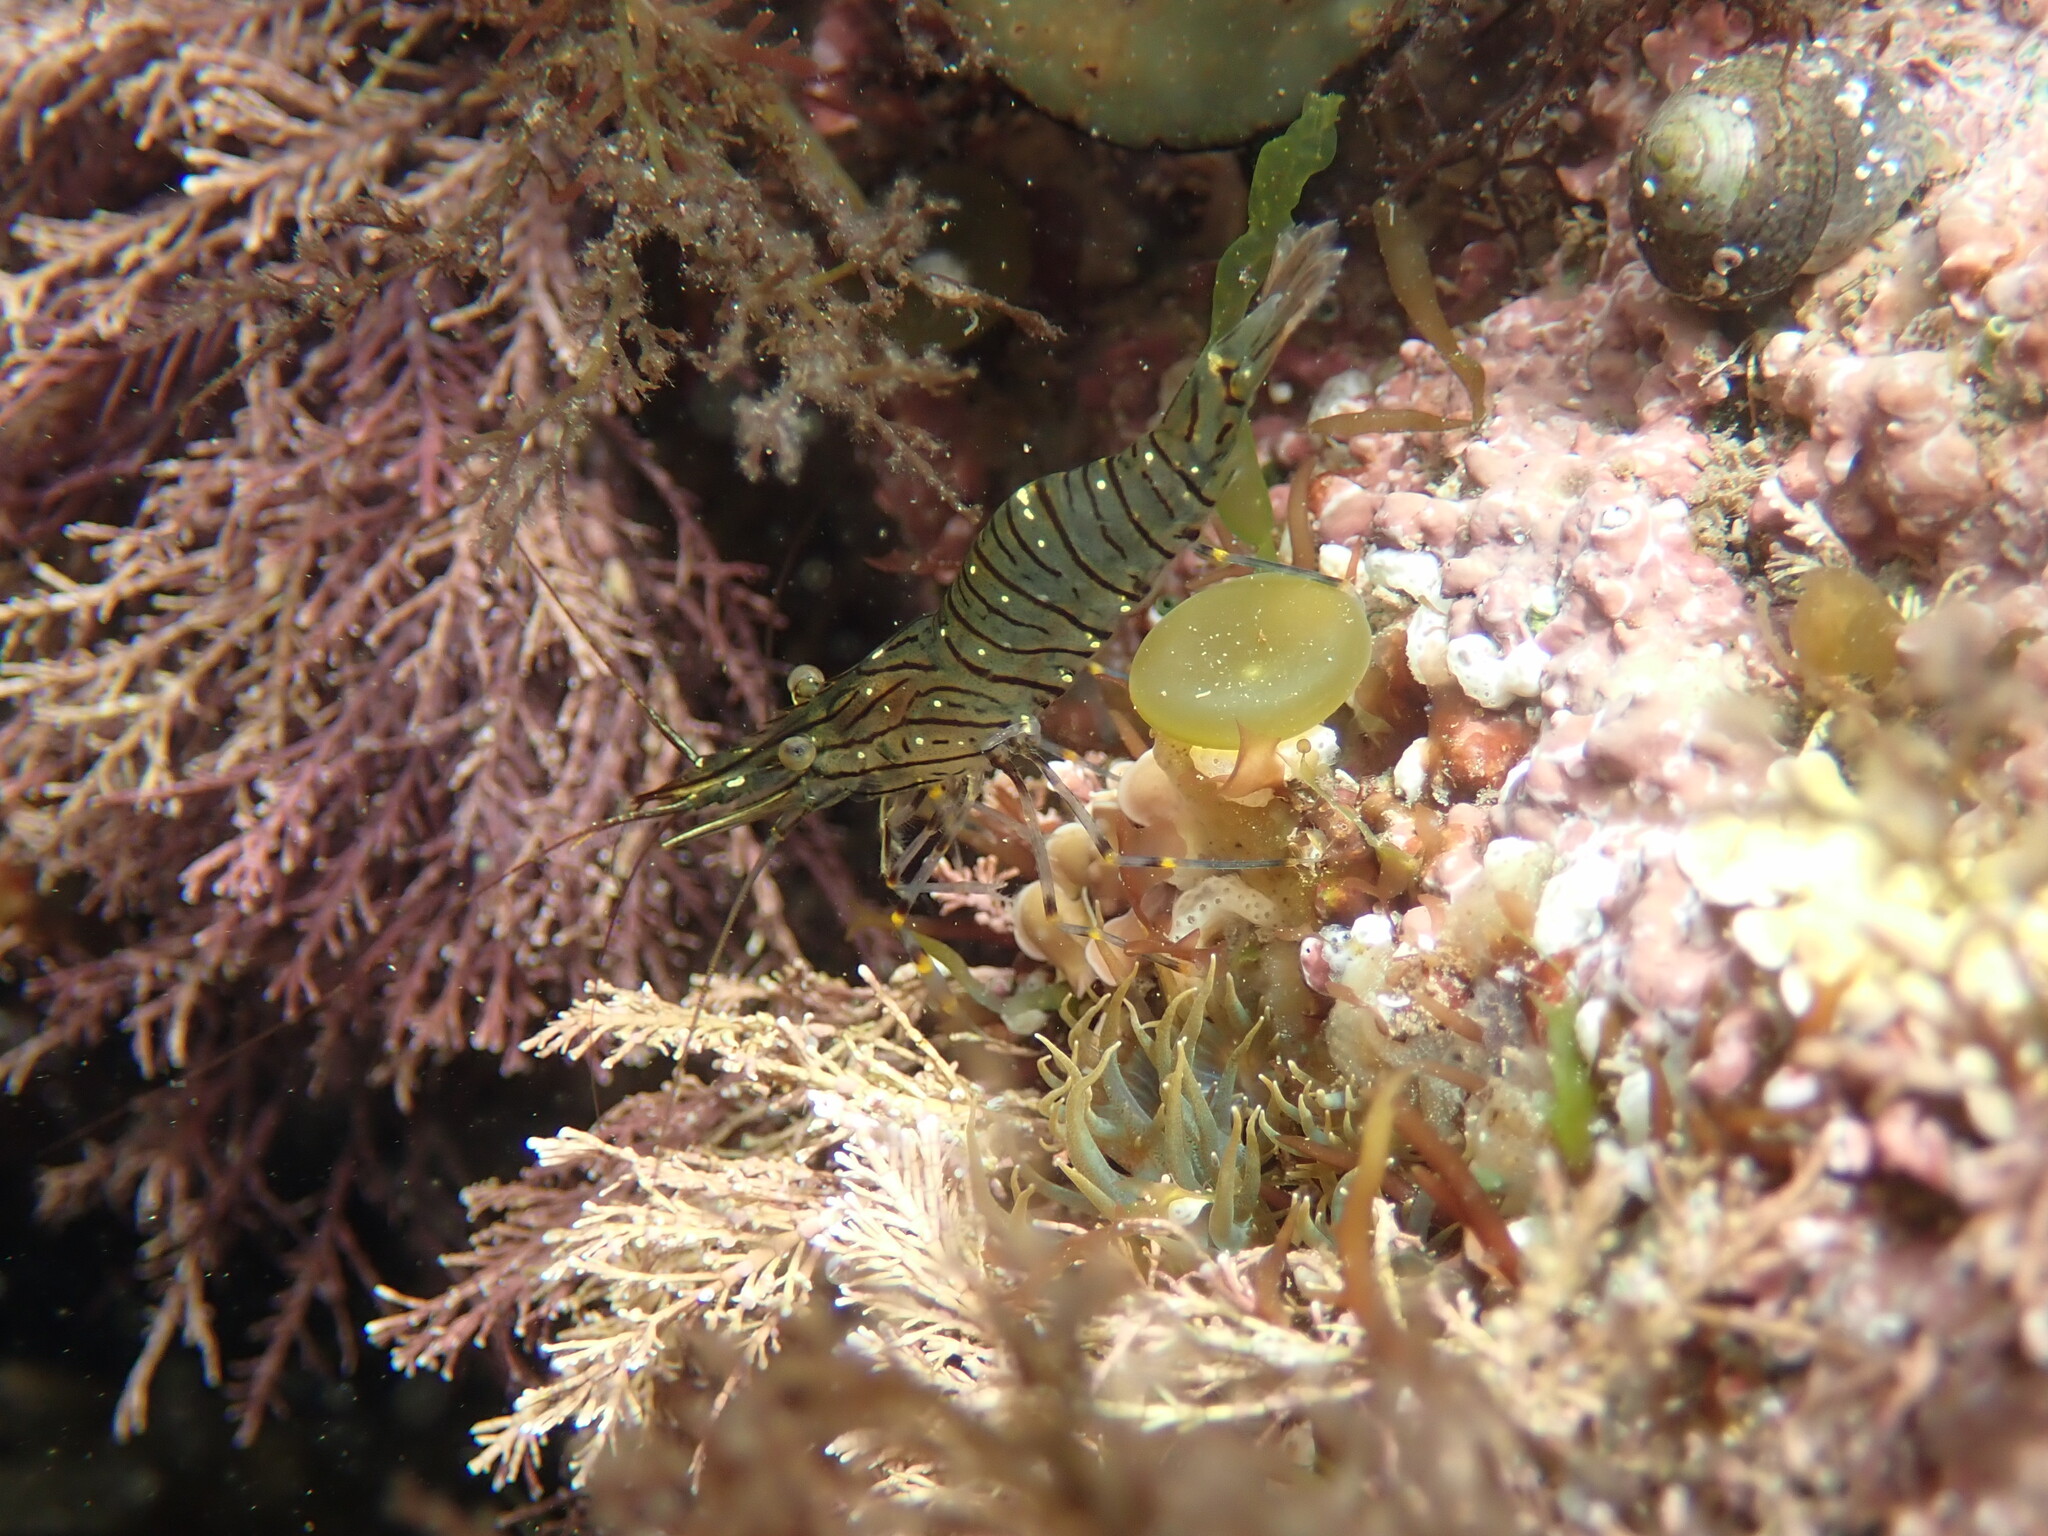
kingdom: Animalia
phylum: Arthropoda
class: Malacostraca
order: Decapoda
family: Palaemonidae
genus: Palaemon
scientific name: Palaemon elegans
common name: Grass prawm
